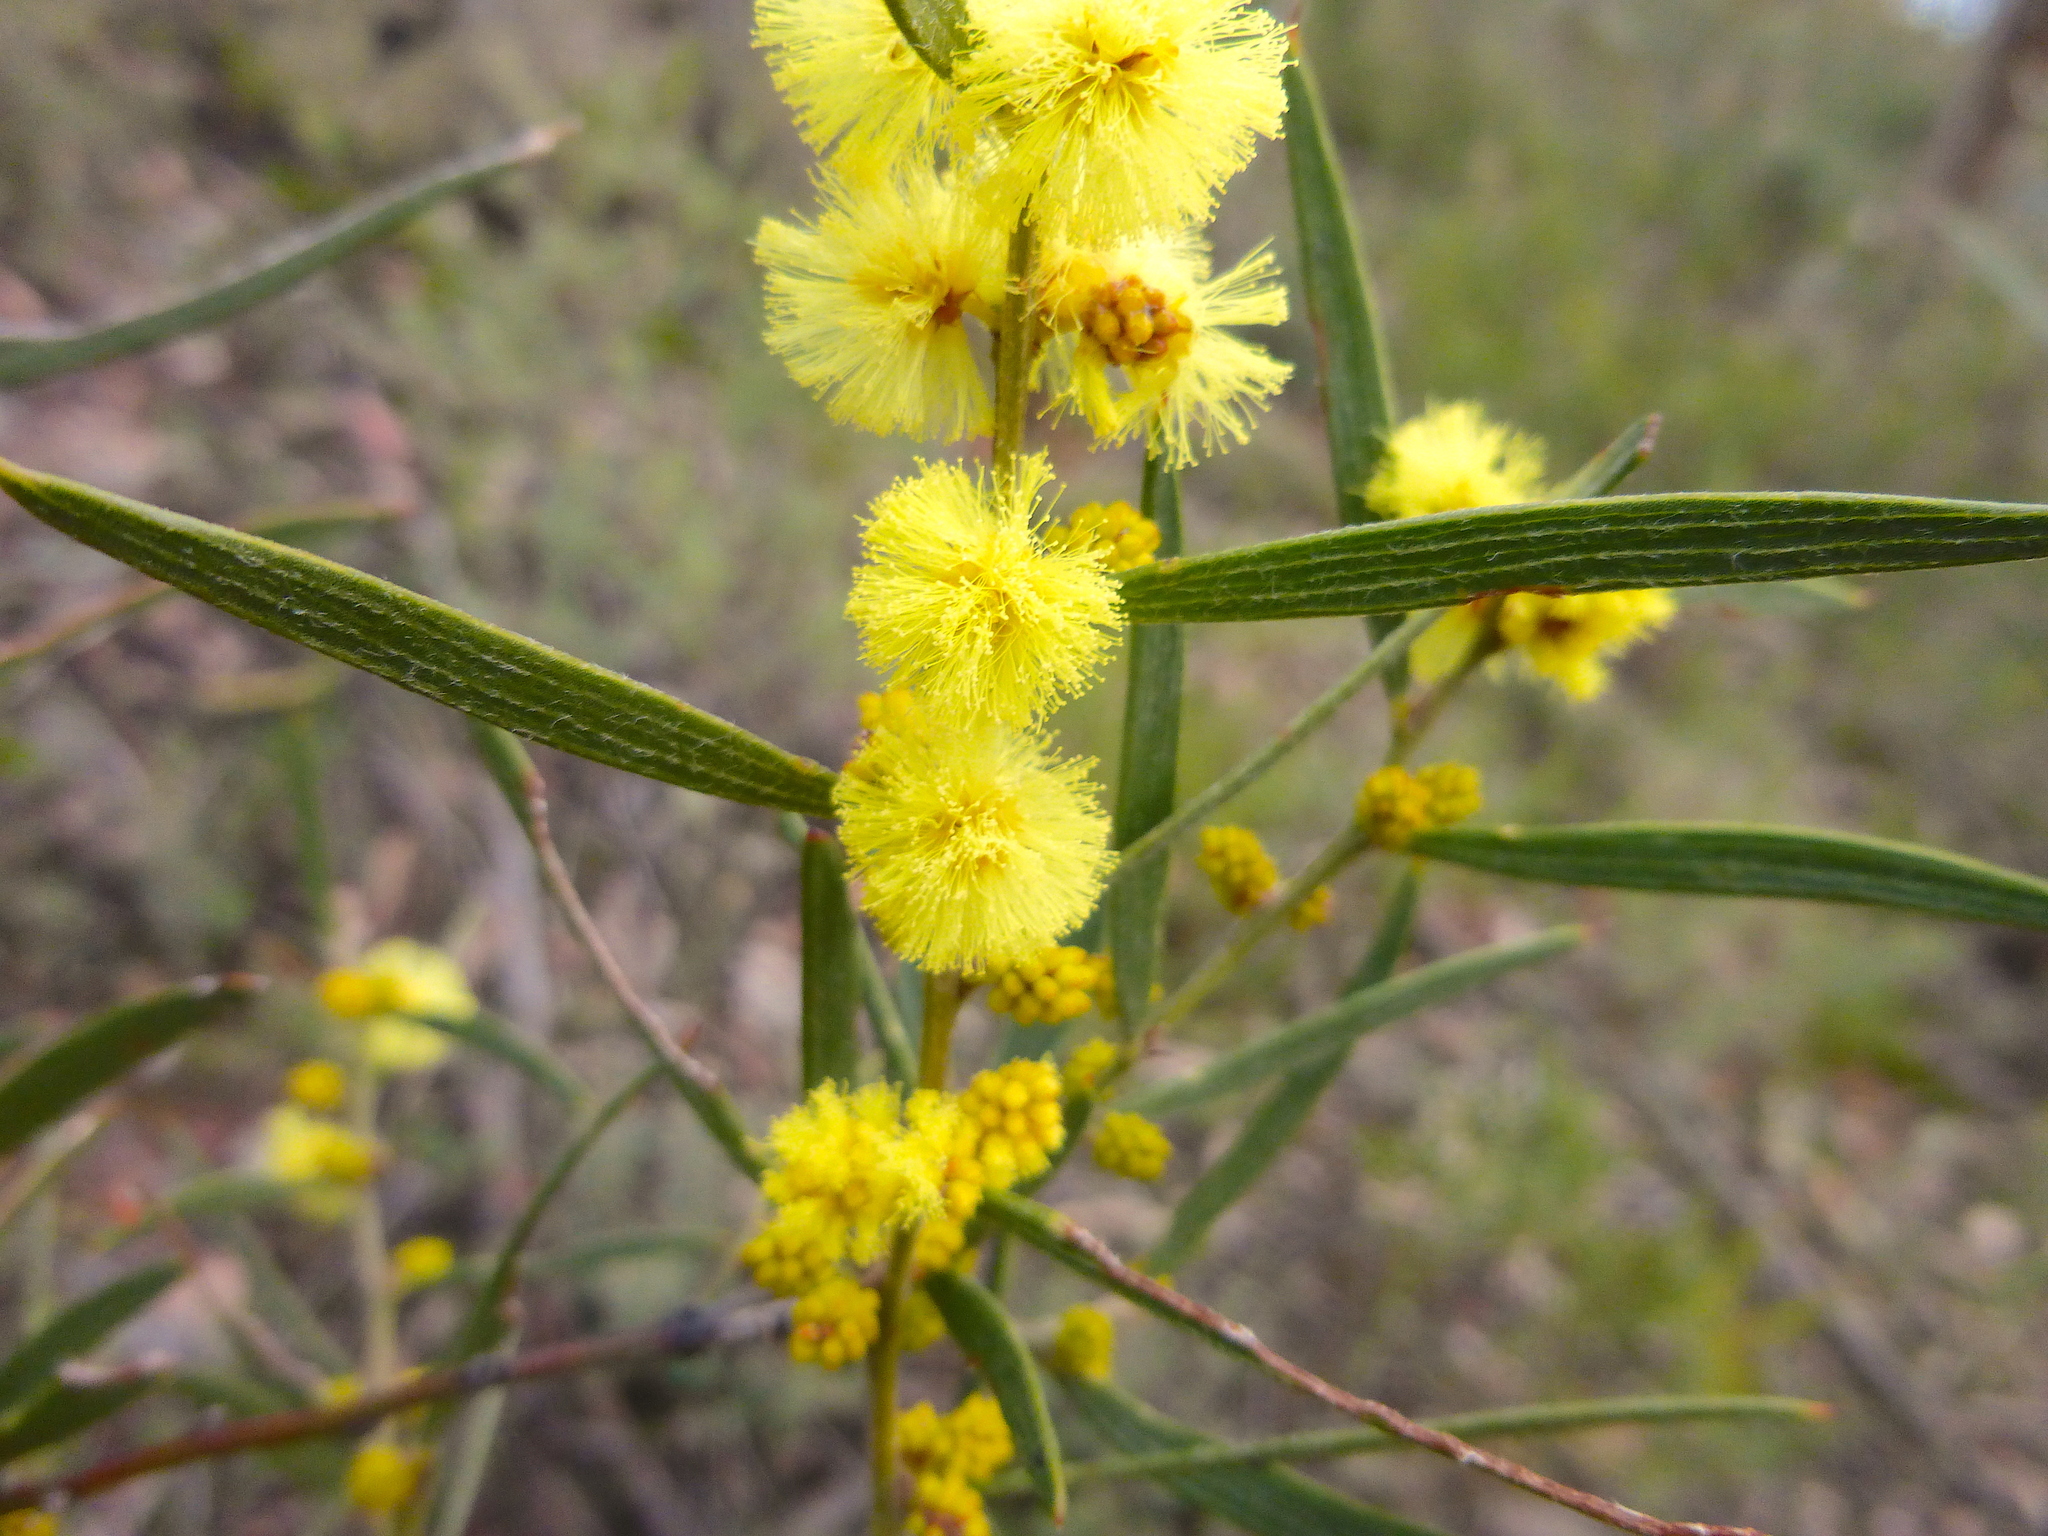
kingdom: Plantae
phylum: Tracheophyta
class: Magnoliopsida
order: Fabales
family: Fabaceae
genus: Acacia
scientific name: Acacia lanigera
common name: Hairy wattle
